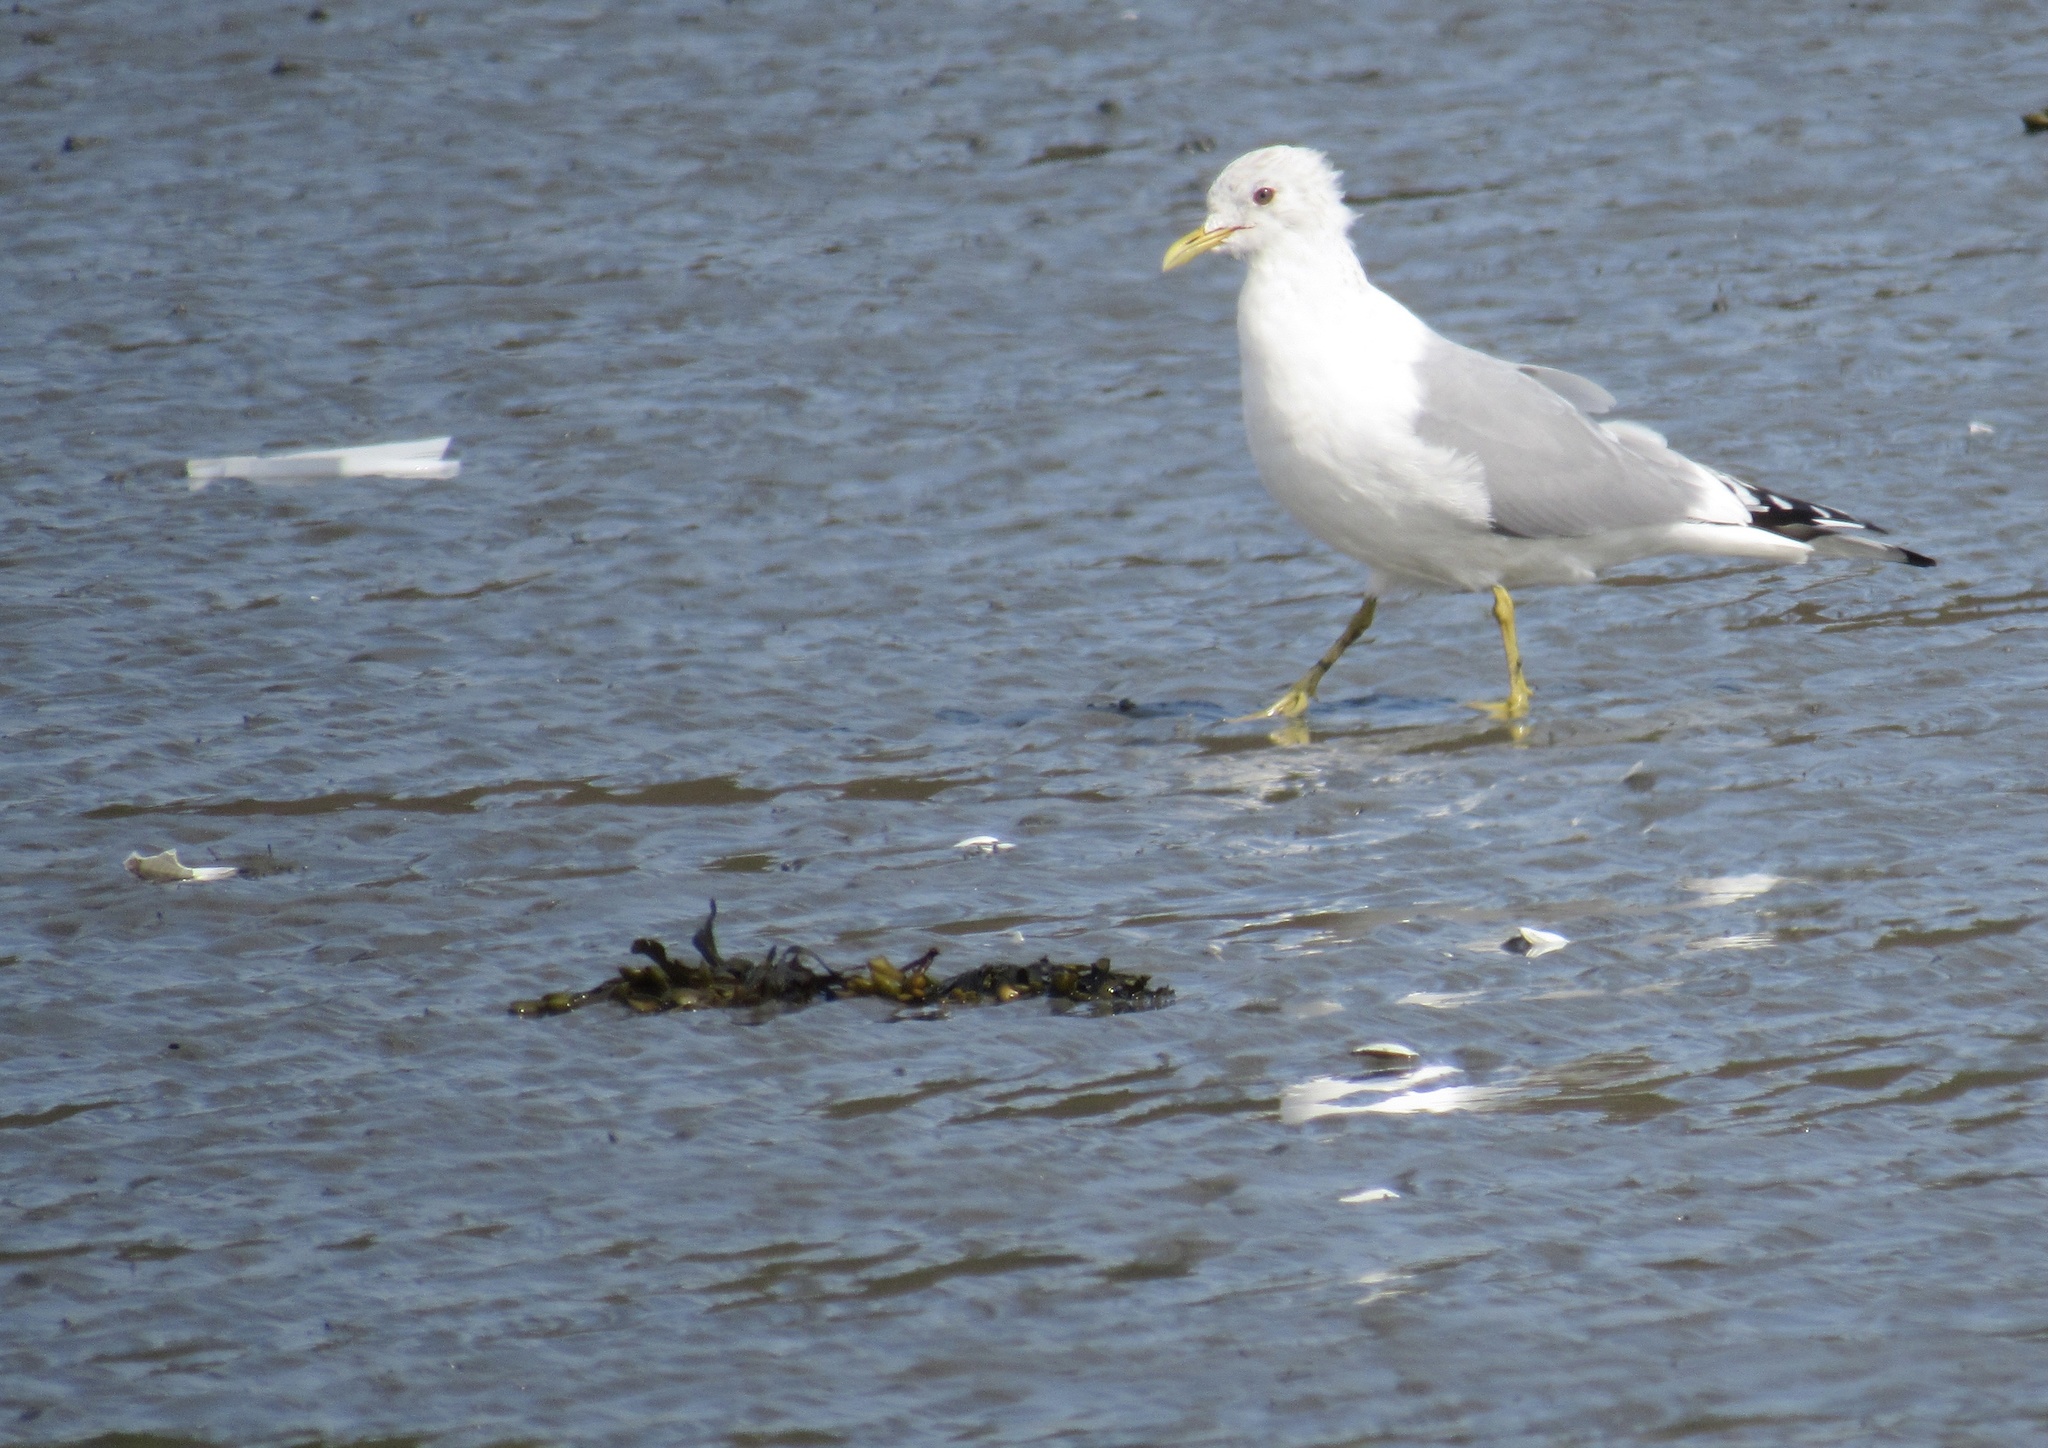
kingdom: Animalia
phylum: Chordata
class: Aves
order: Charadriiformes
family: Laridae
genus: Larus
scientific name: Larus brachyrhynchus
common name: Short-billed gull
